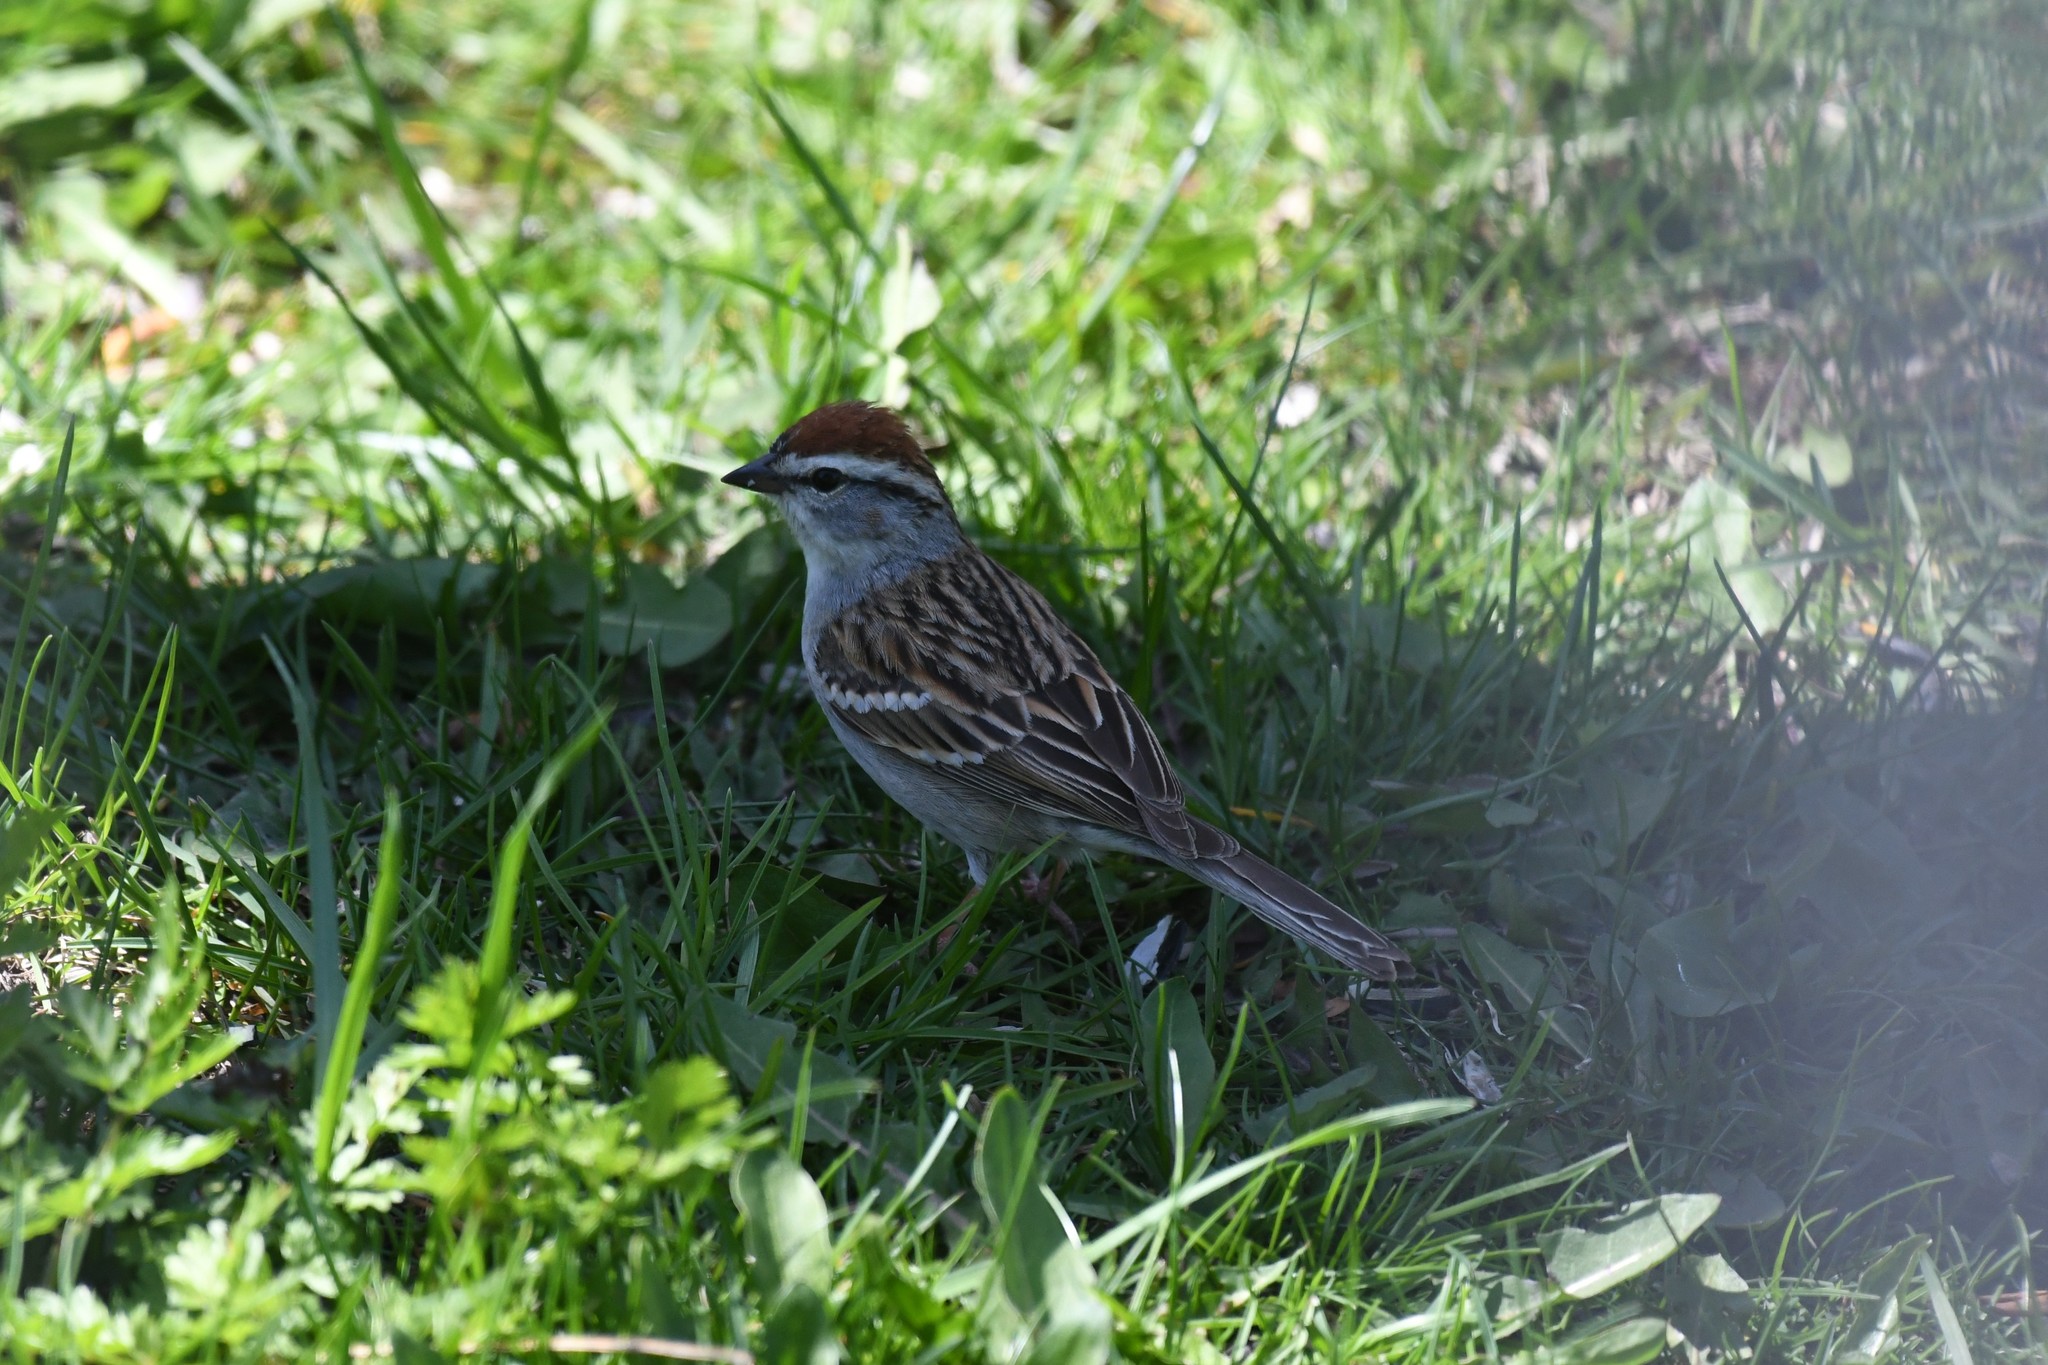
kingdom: Animalia
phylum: Chordata
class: Aves
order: Passeriformes
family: Passerellidae
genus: Spizella
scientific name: Spizella passerina
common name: Chipping sparrow
